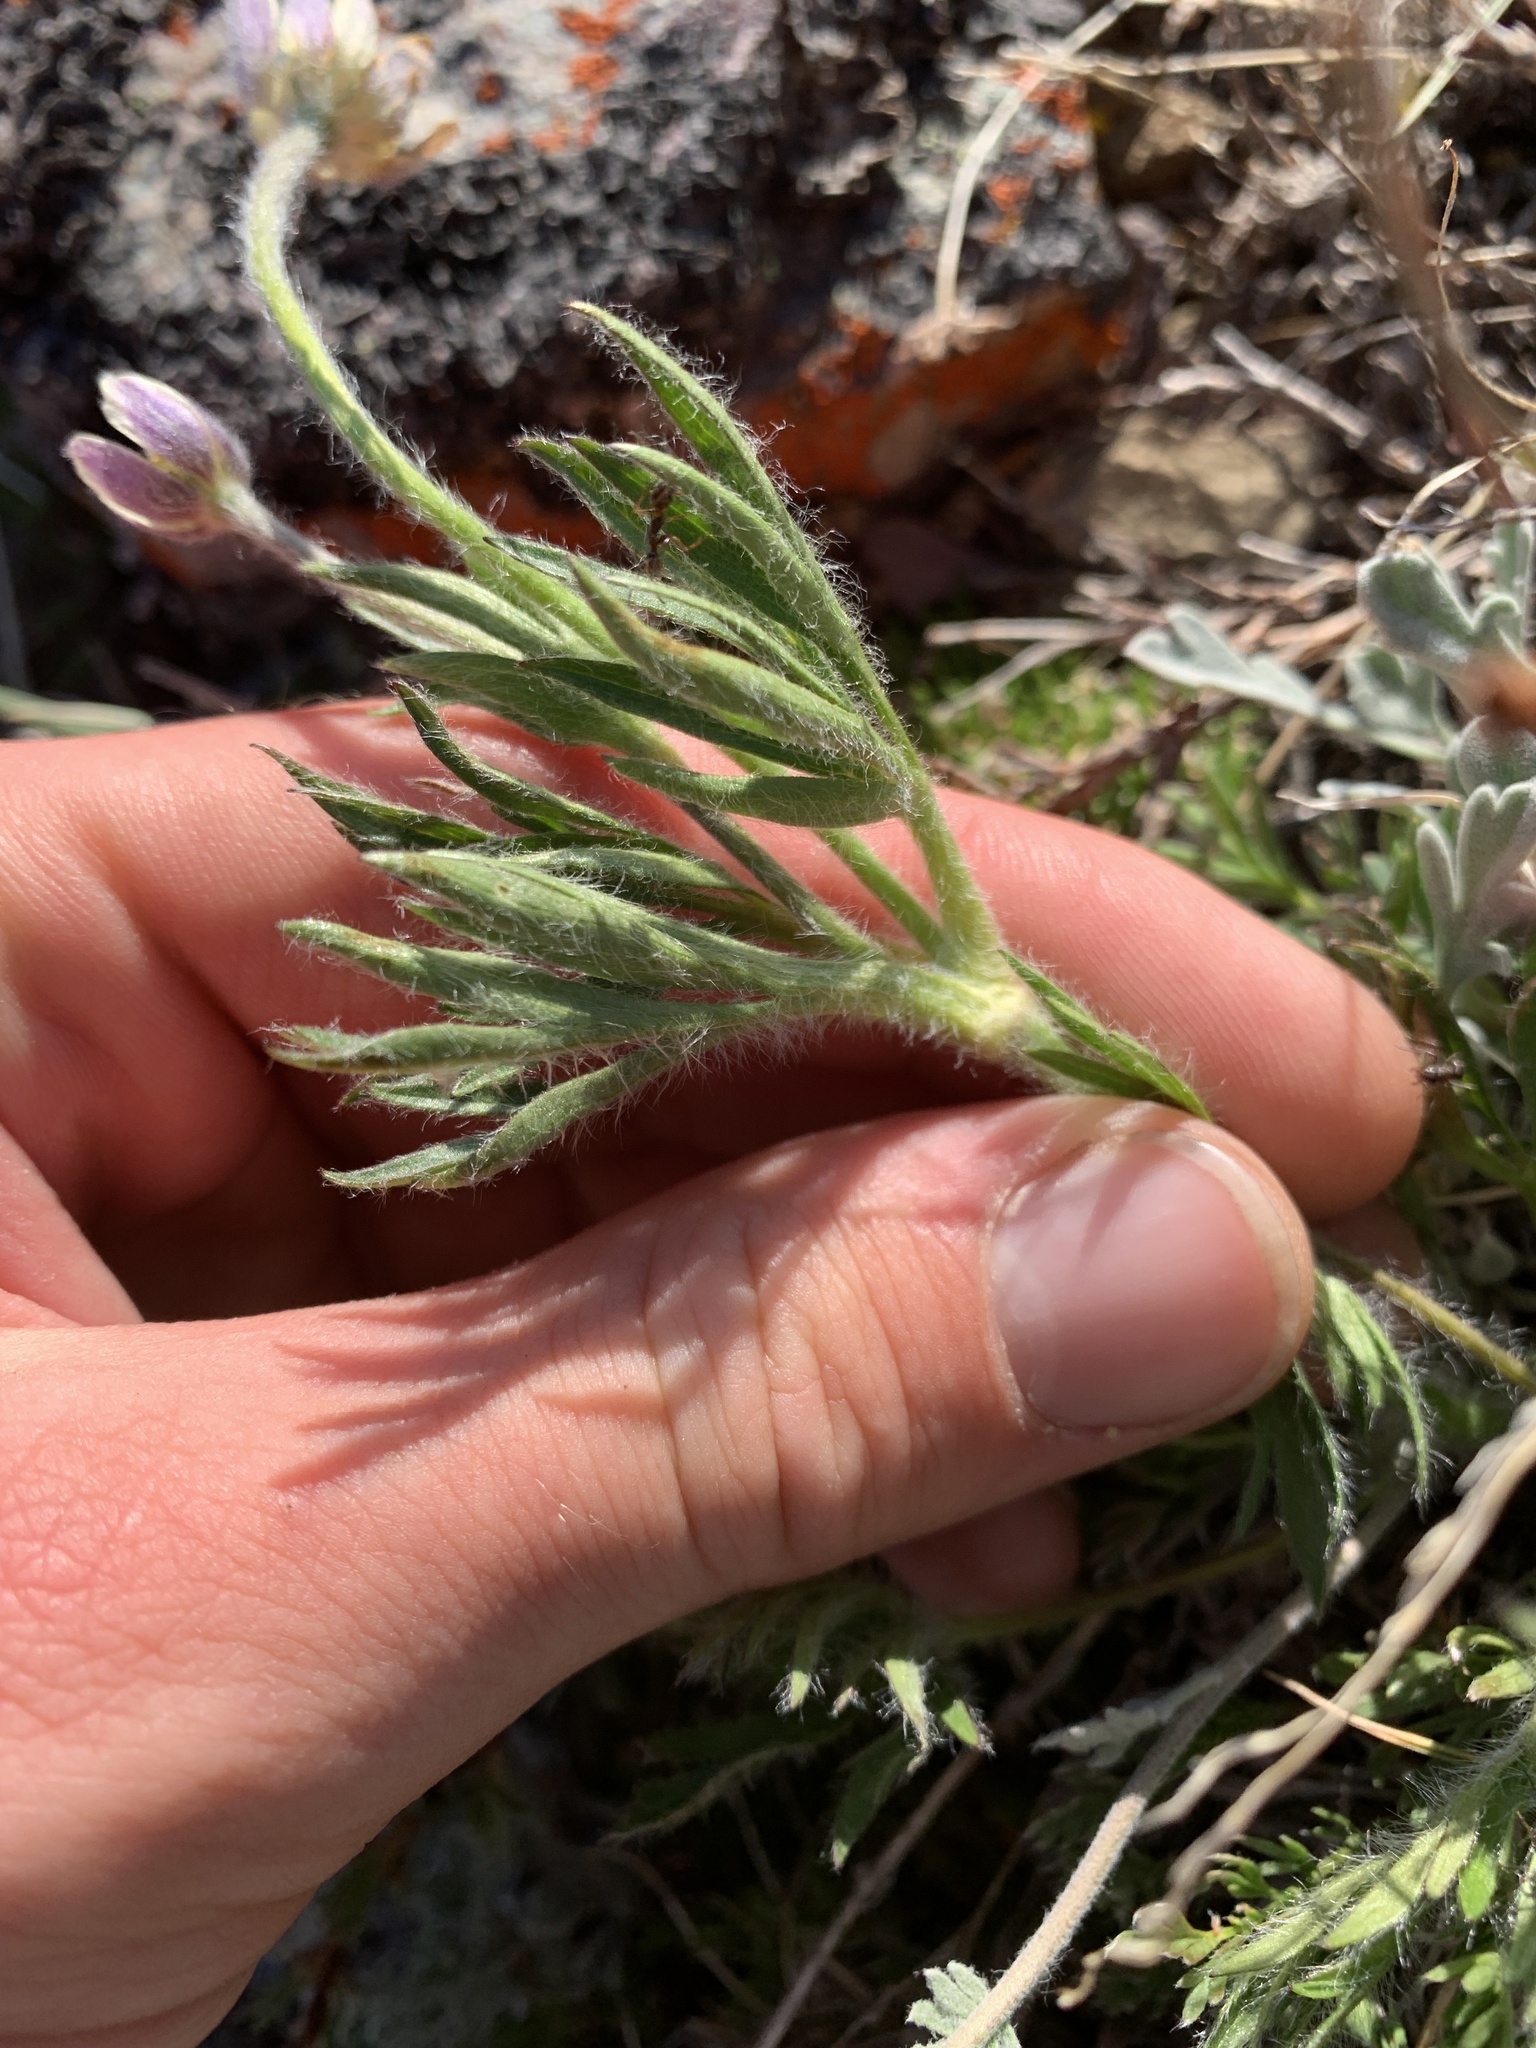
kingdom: Plantae
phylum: Tracheophyta
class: Magnoliopsida
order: Ranunculales
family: Ranunculaceae
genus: Anemone
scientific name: Anemone multifida
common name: Bird's-foot anemone
